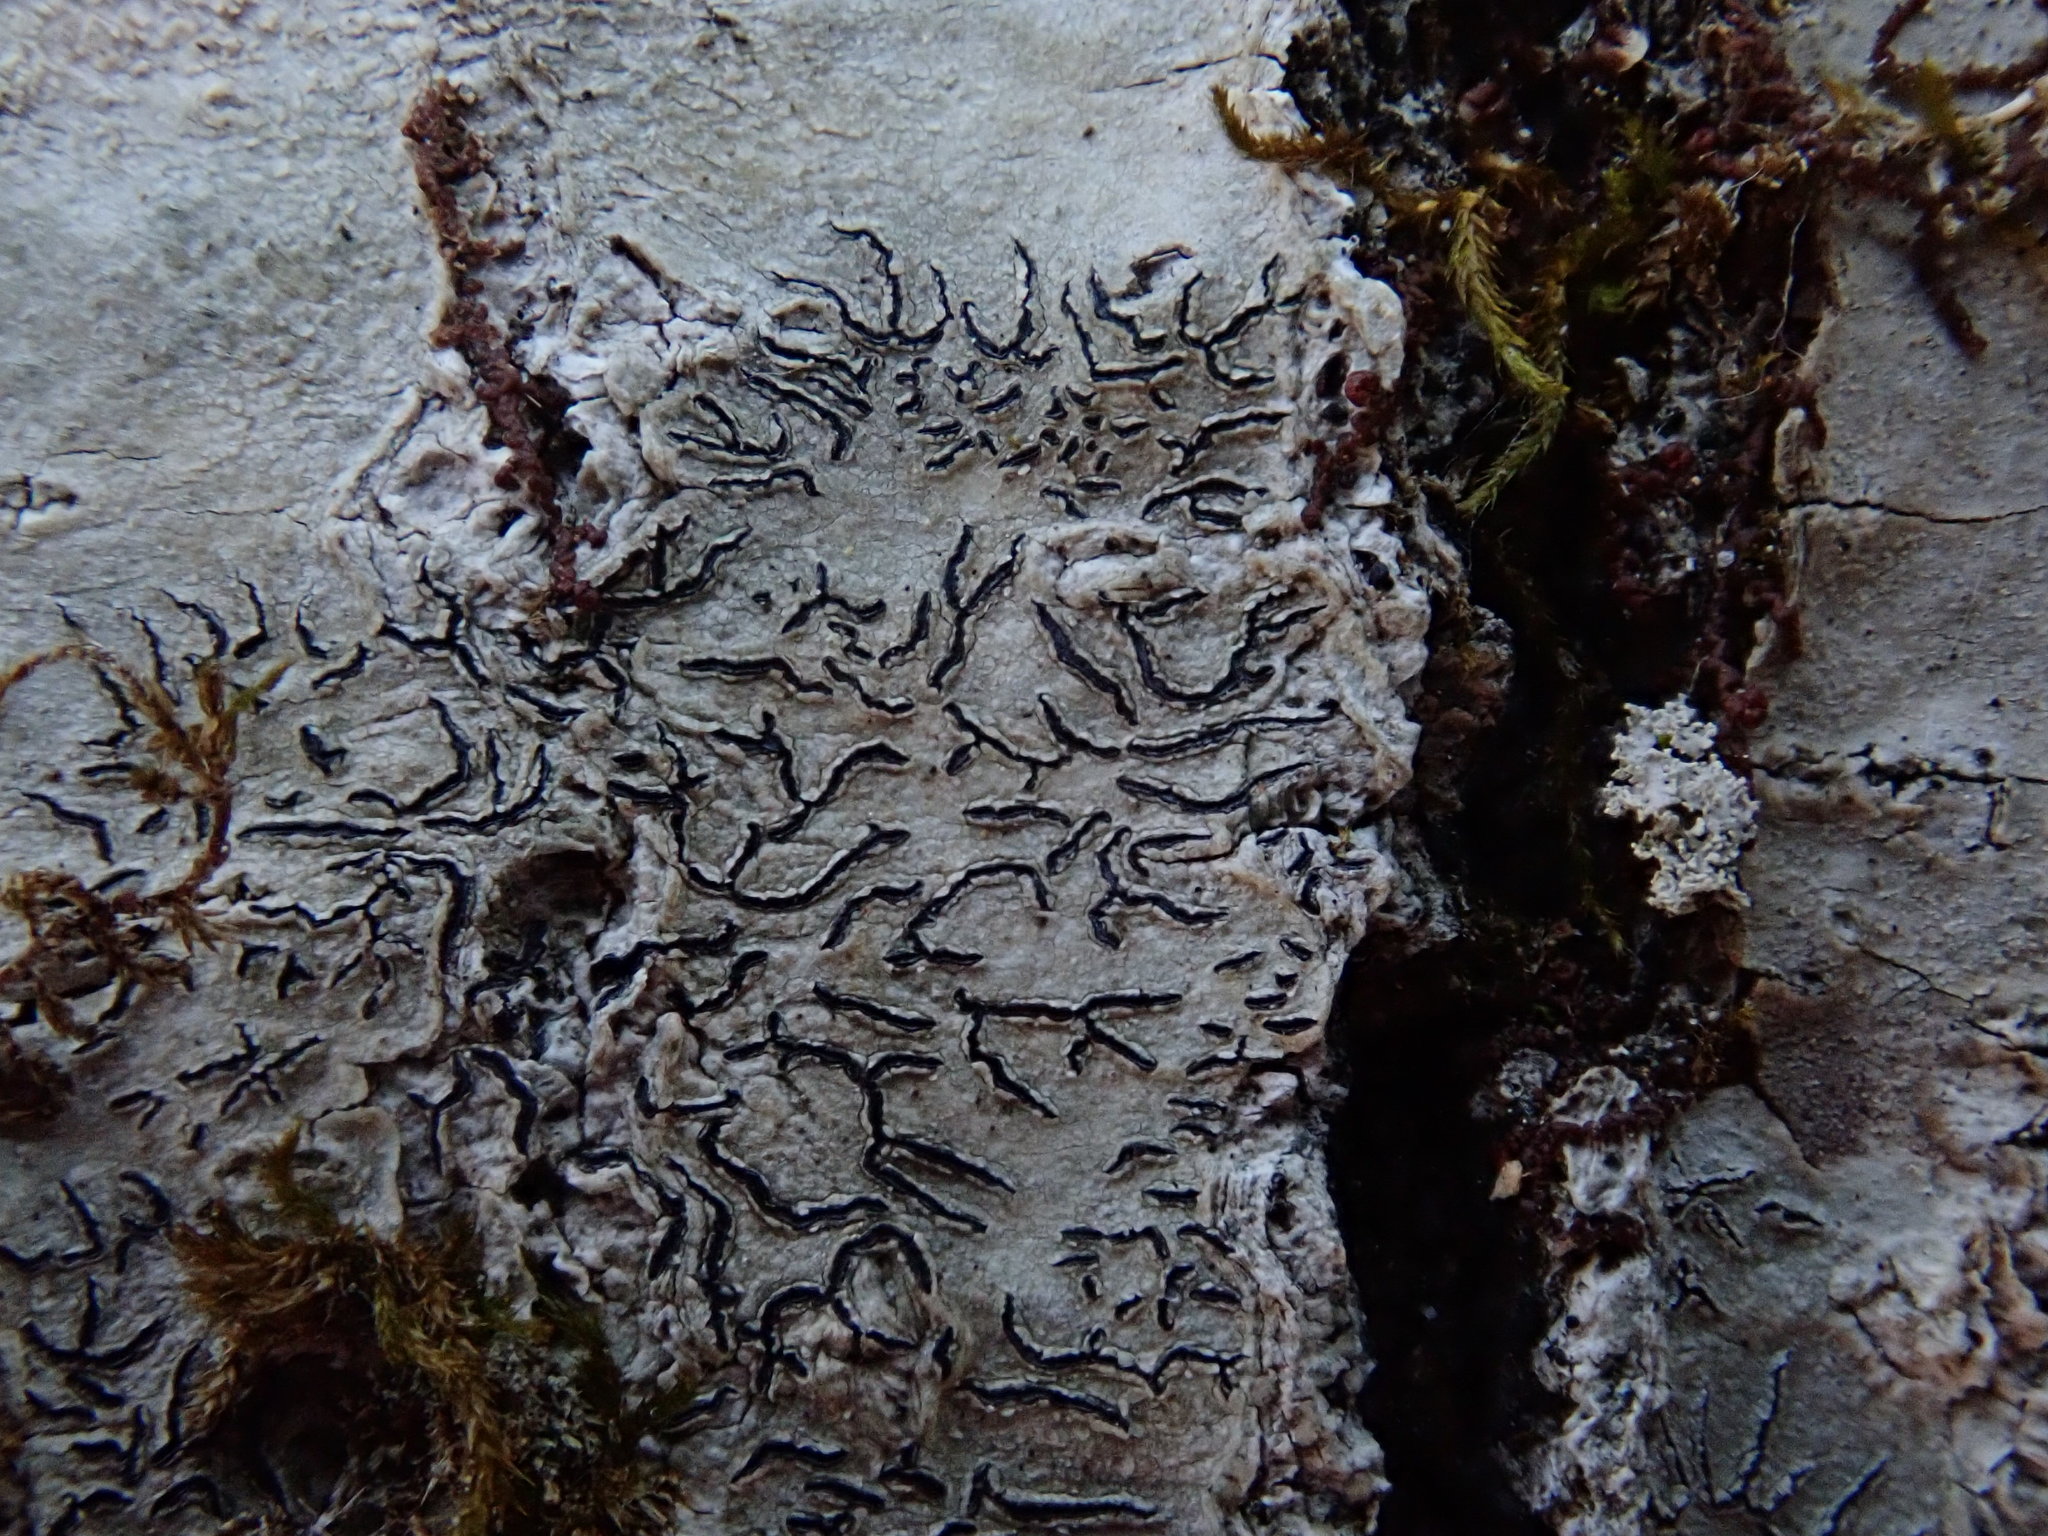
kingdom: Fungi
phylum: Ascomycota
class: Lecanoromycetes
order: Ostropales
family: Graphidaceae
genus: Graphis
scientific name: Graphis scripta
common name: Script lichen
